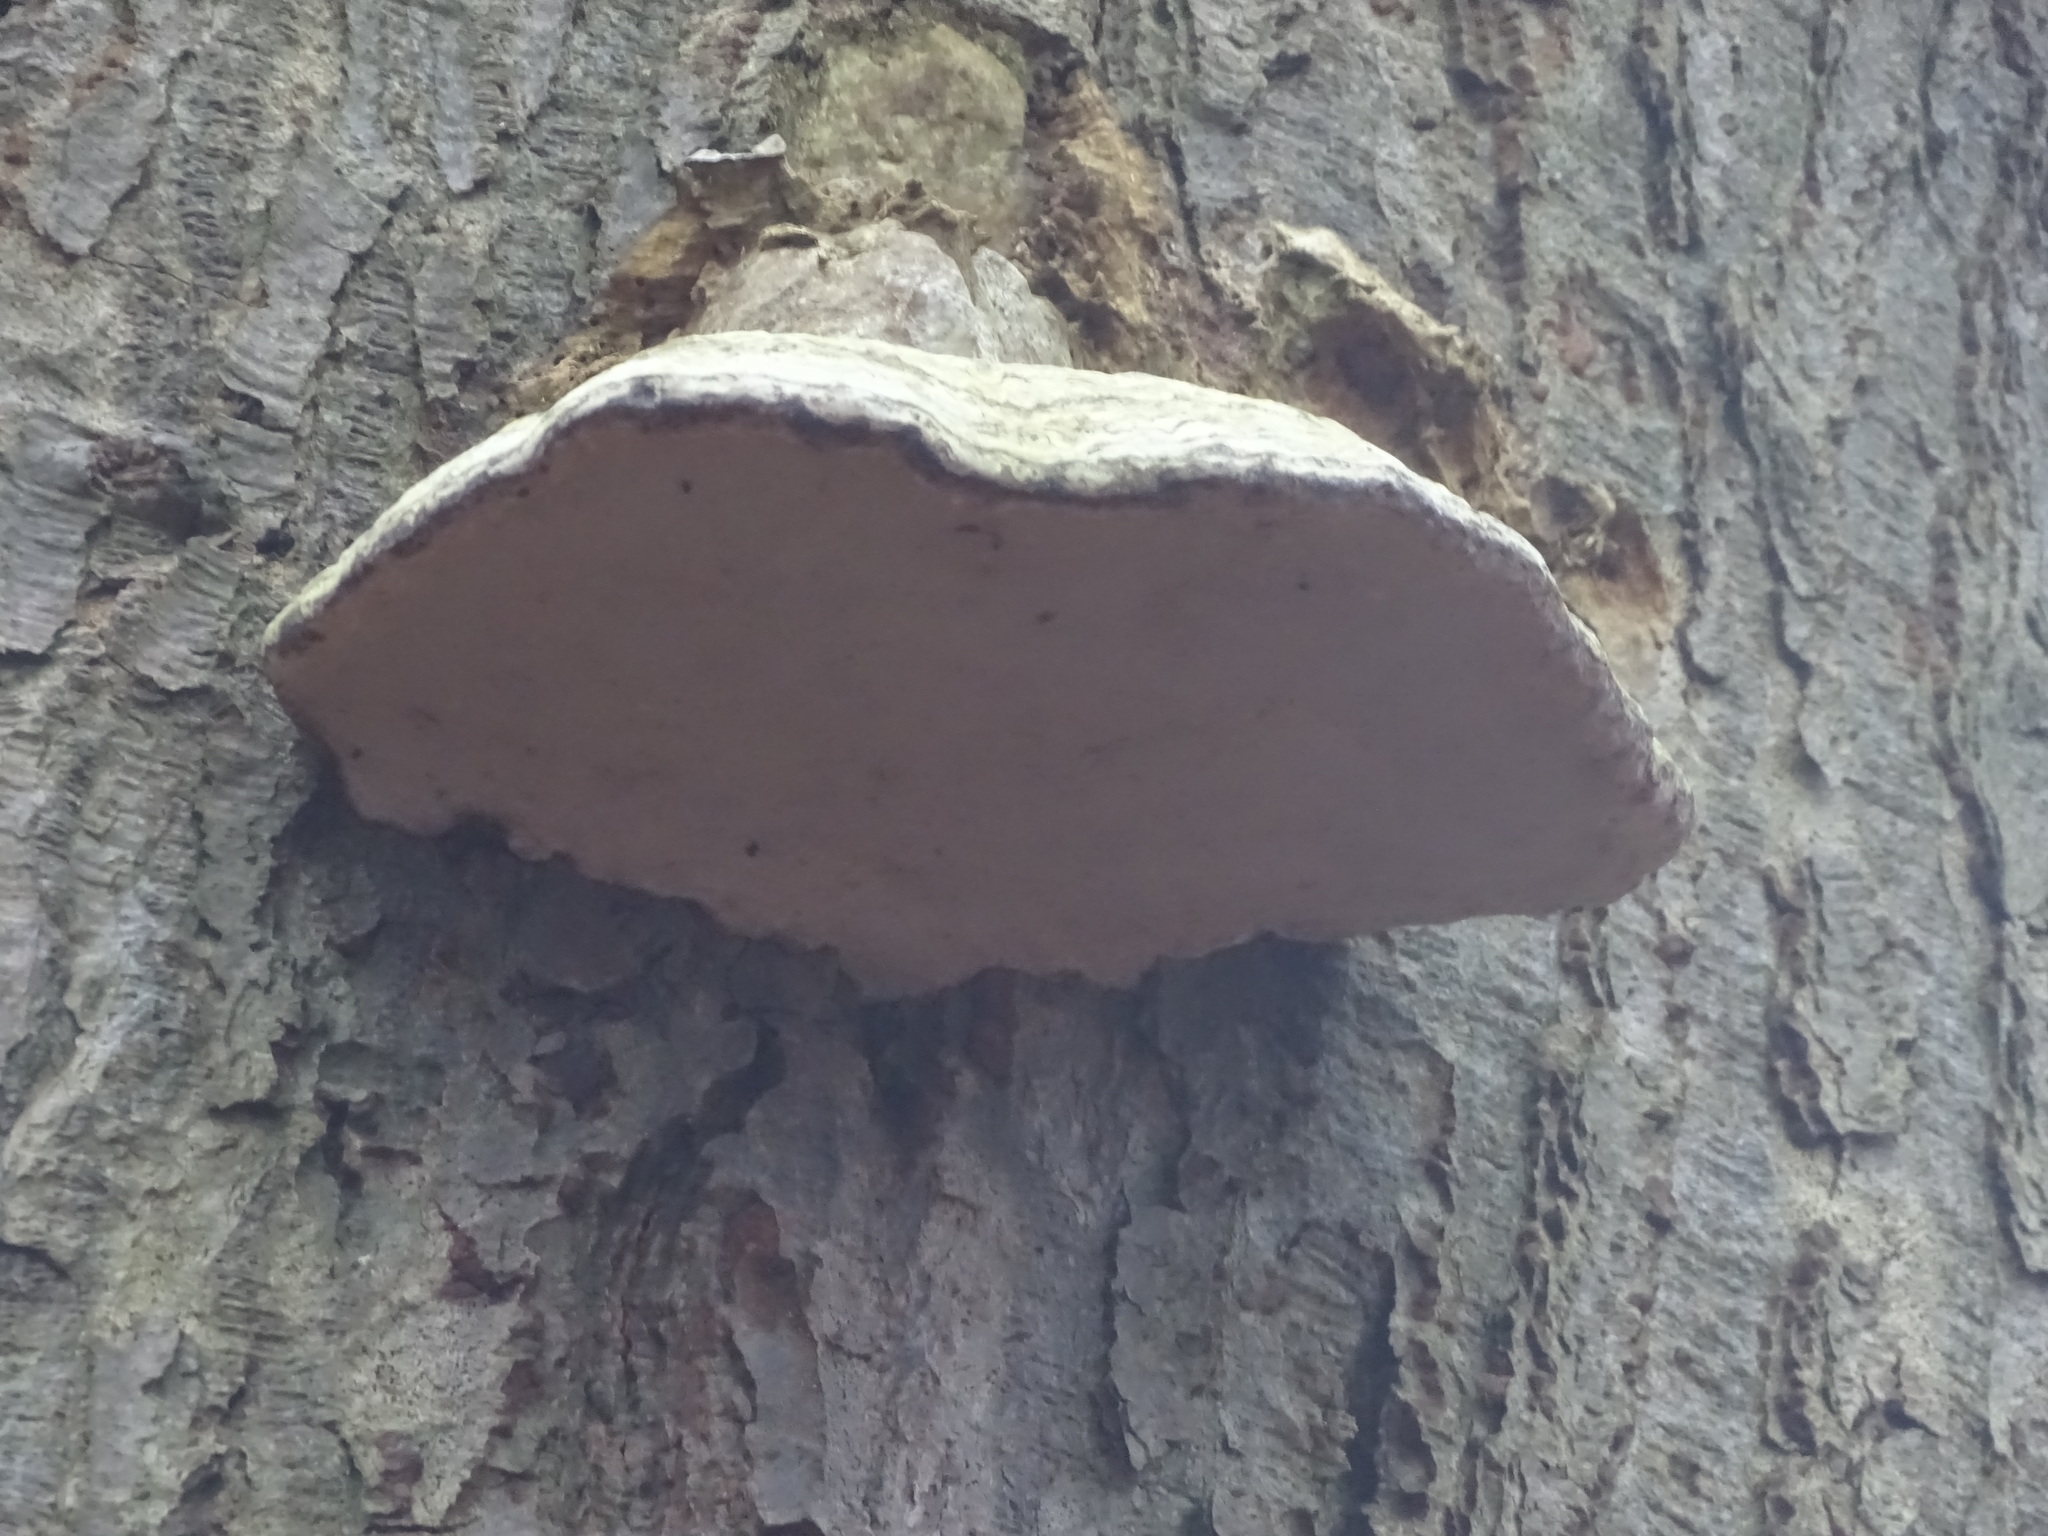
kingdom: Fungi
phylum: Basidiomycota
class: Agaricomycetes
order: Polyporales
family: Polyporaceae
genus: Fomes
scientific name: Fomes fomentarius
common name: Hoof fungus
